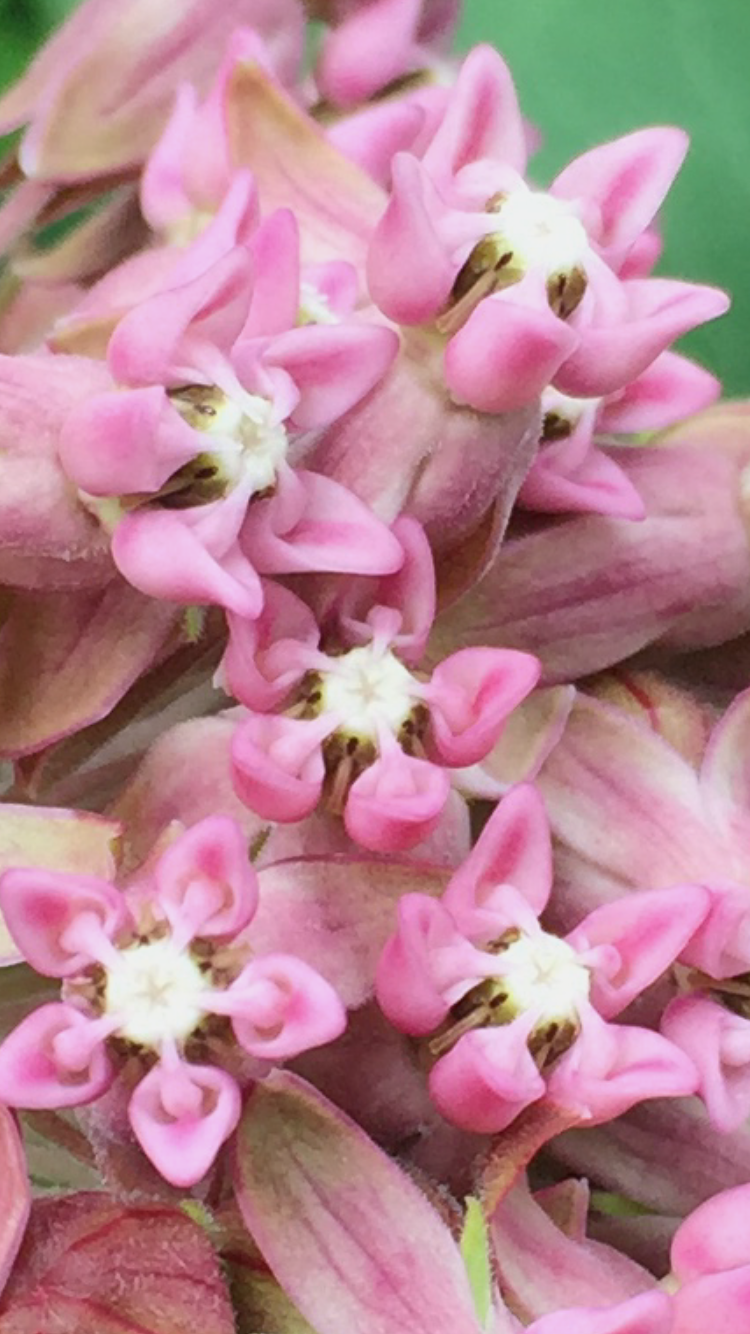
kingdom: Plantae
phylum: Tracheophyta
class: Magnoliopsida
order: Gentianales
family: Apocynaceae
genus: Asclepias
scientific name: Asclepias syriaca
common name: Common milkweed
